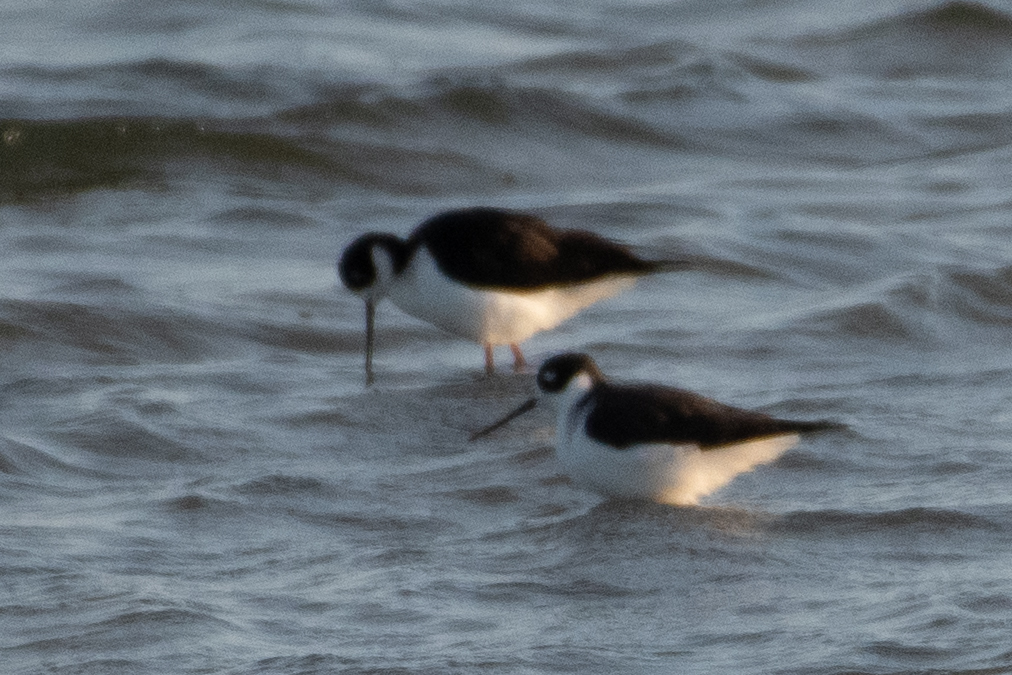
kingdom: Animalia
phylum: Chordata
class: Aves
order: Charadriiformes
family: Recurvirostridae
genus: Himantopus
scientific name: Himantopus mexicanus
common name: Black-necked stilt
